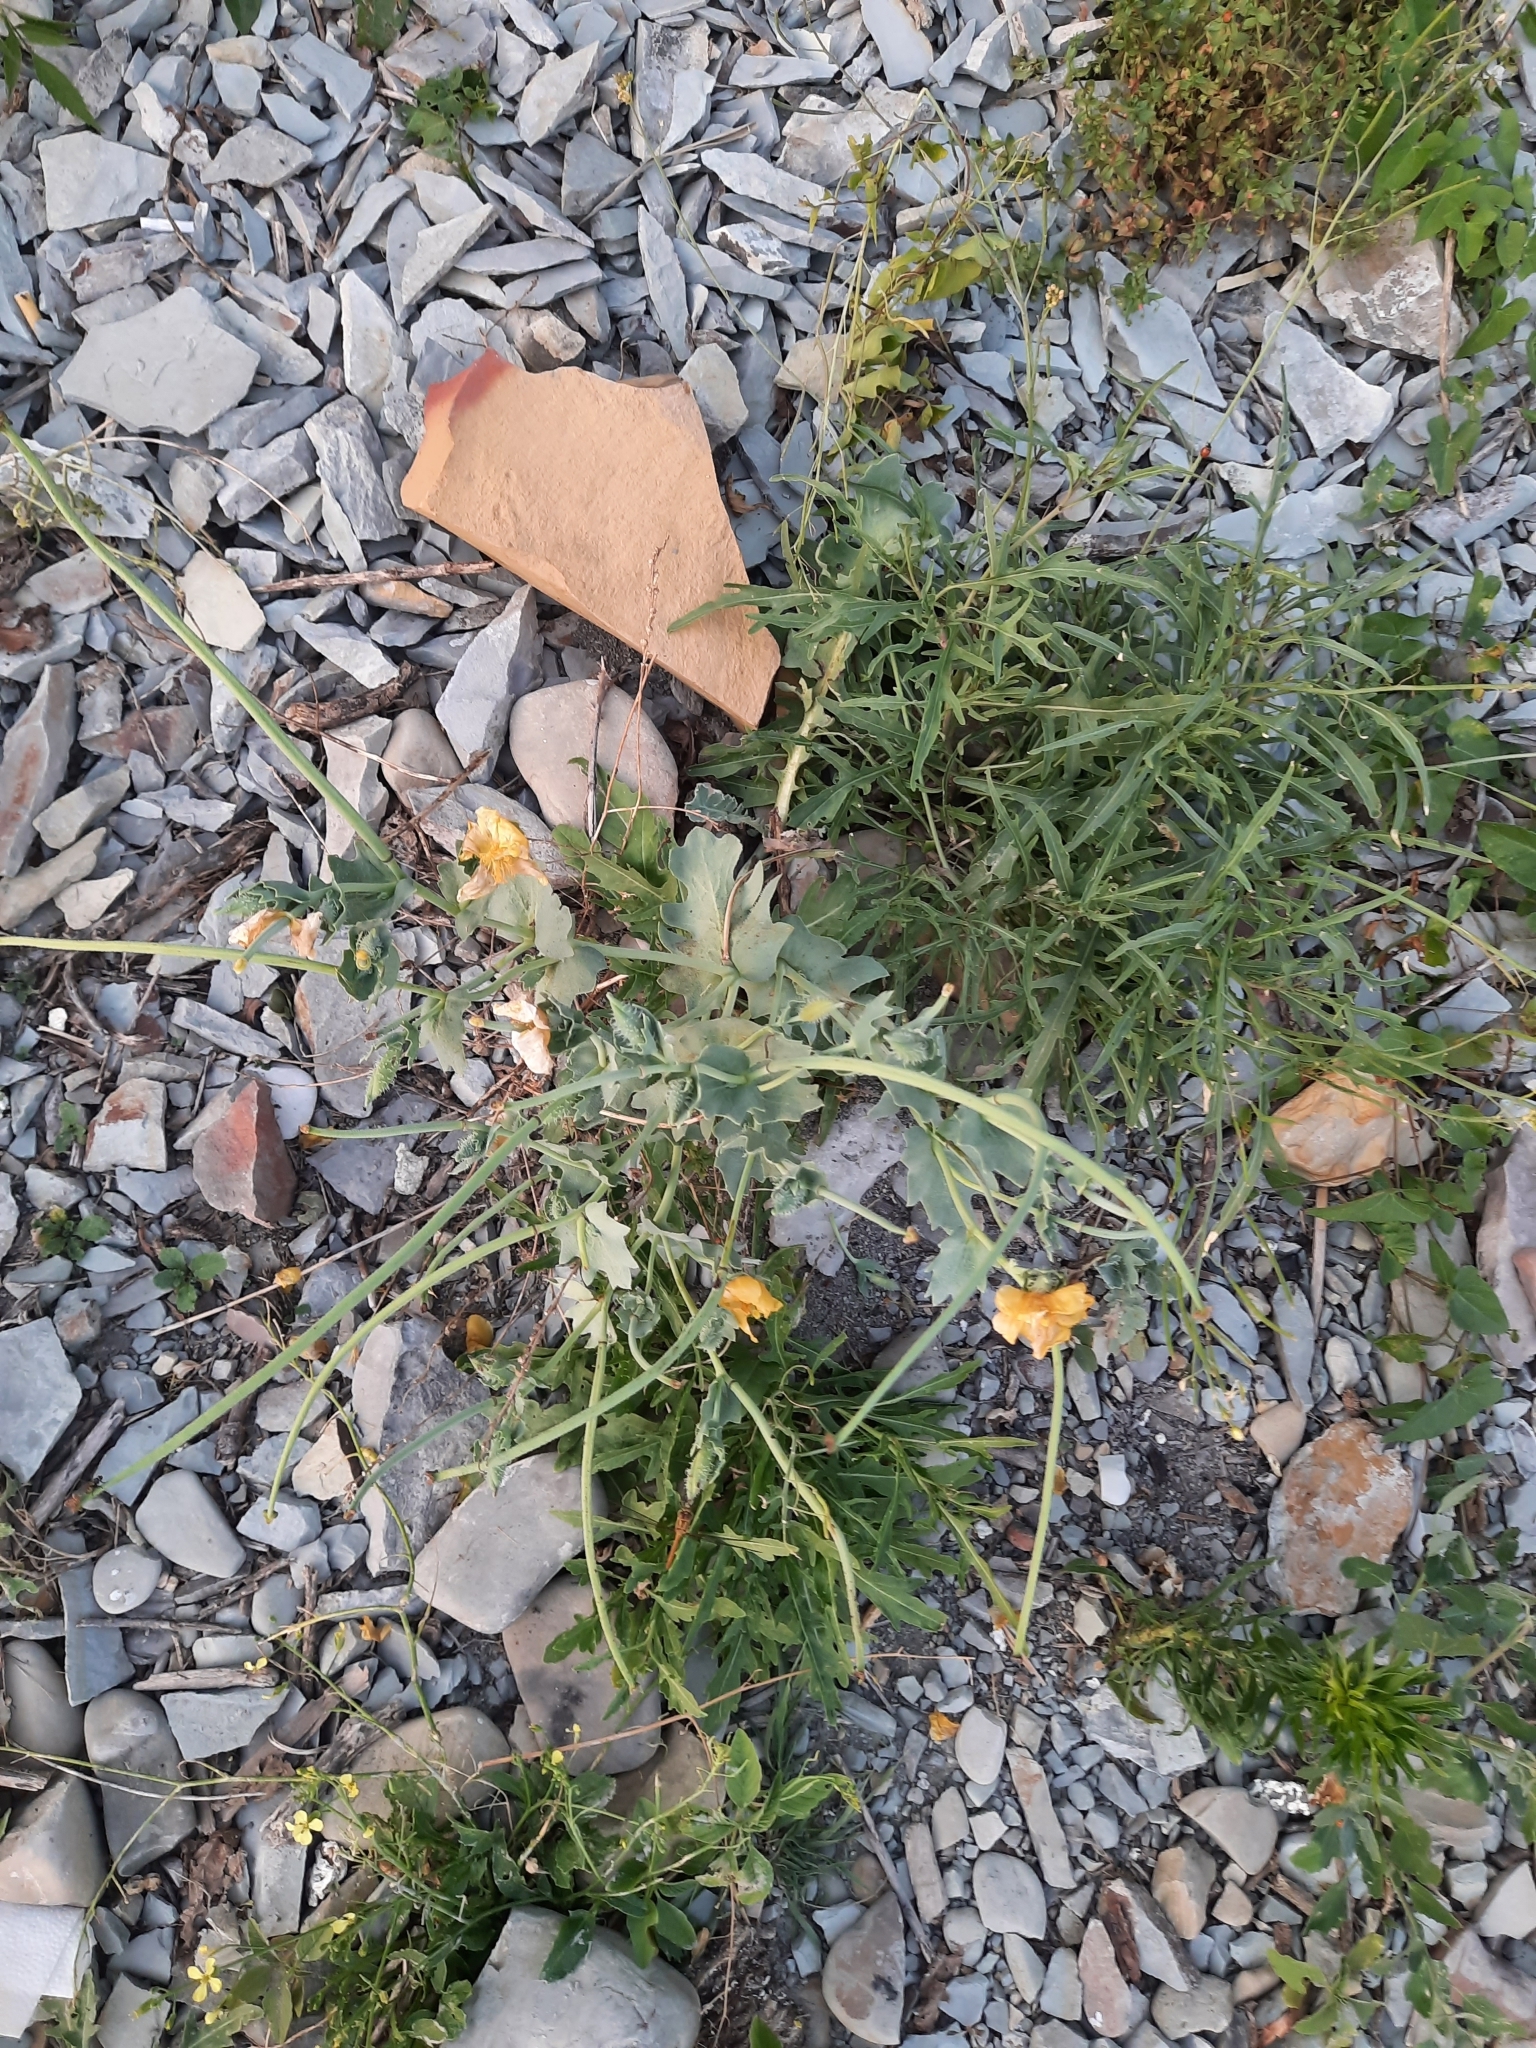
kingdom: Plantae
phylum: Tracheophyta
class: Magnoliopsida
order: Ranunculales
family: Papaveraceae
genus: Glaucium
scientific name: Glaucium flavum
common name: Yellow horned-poppy
